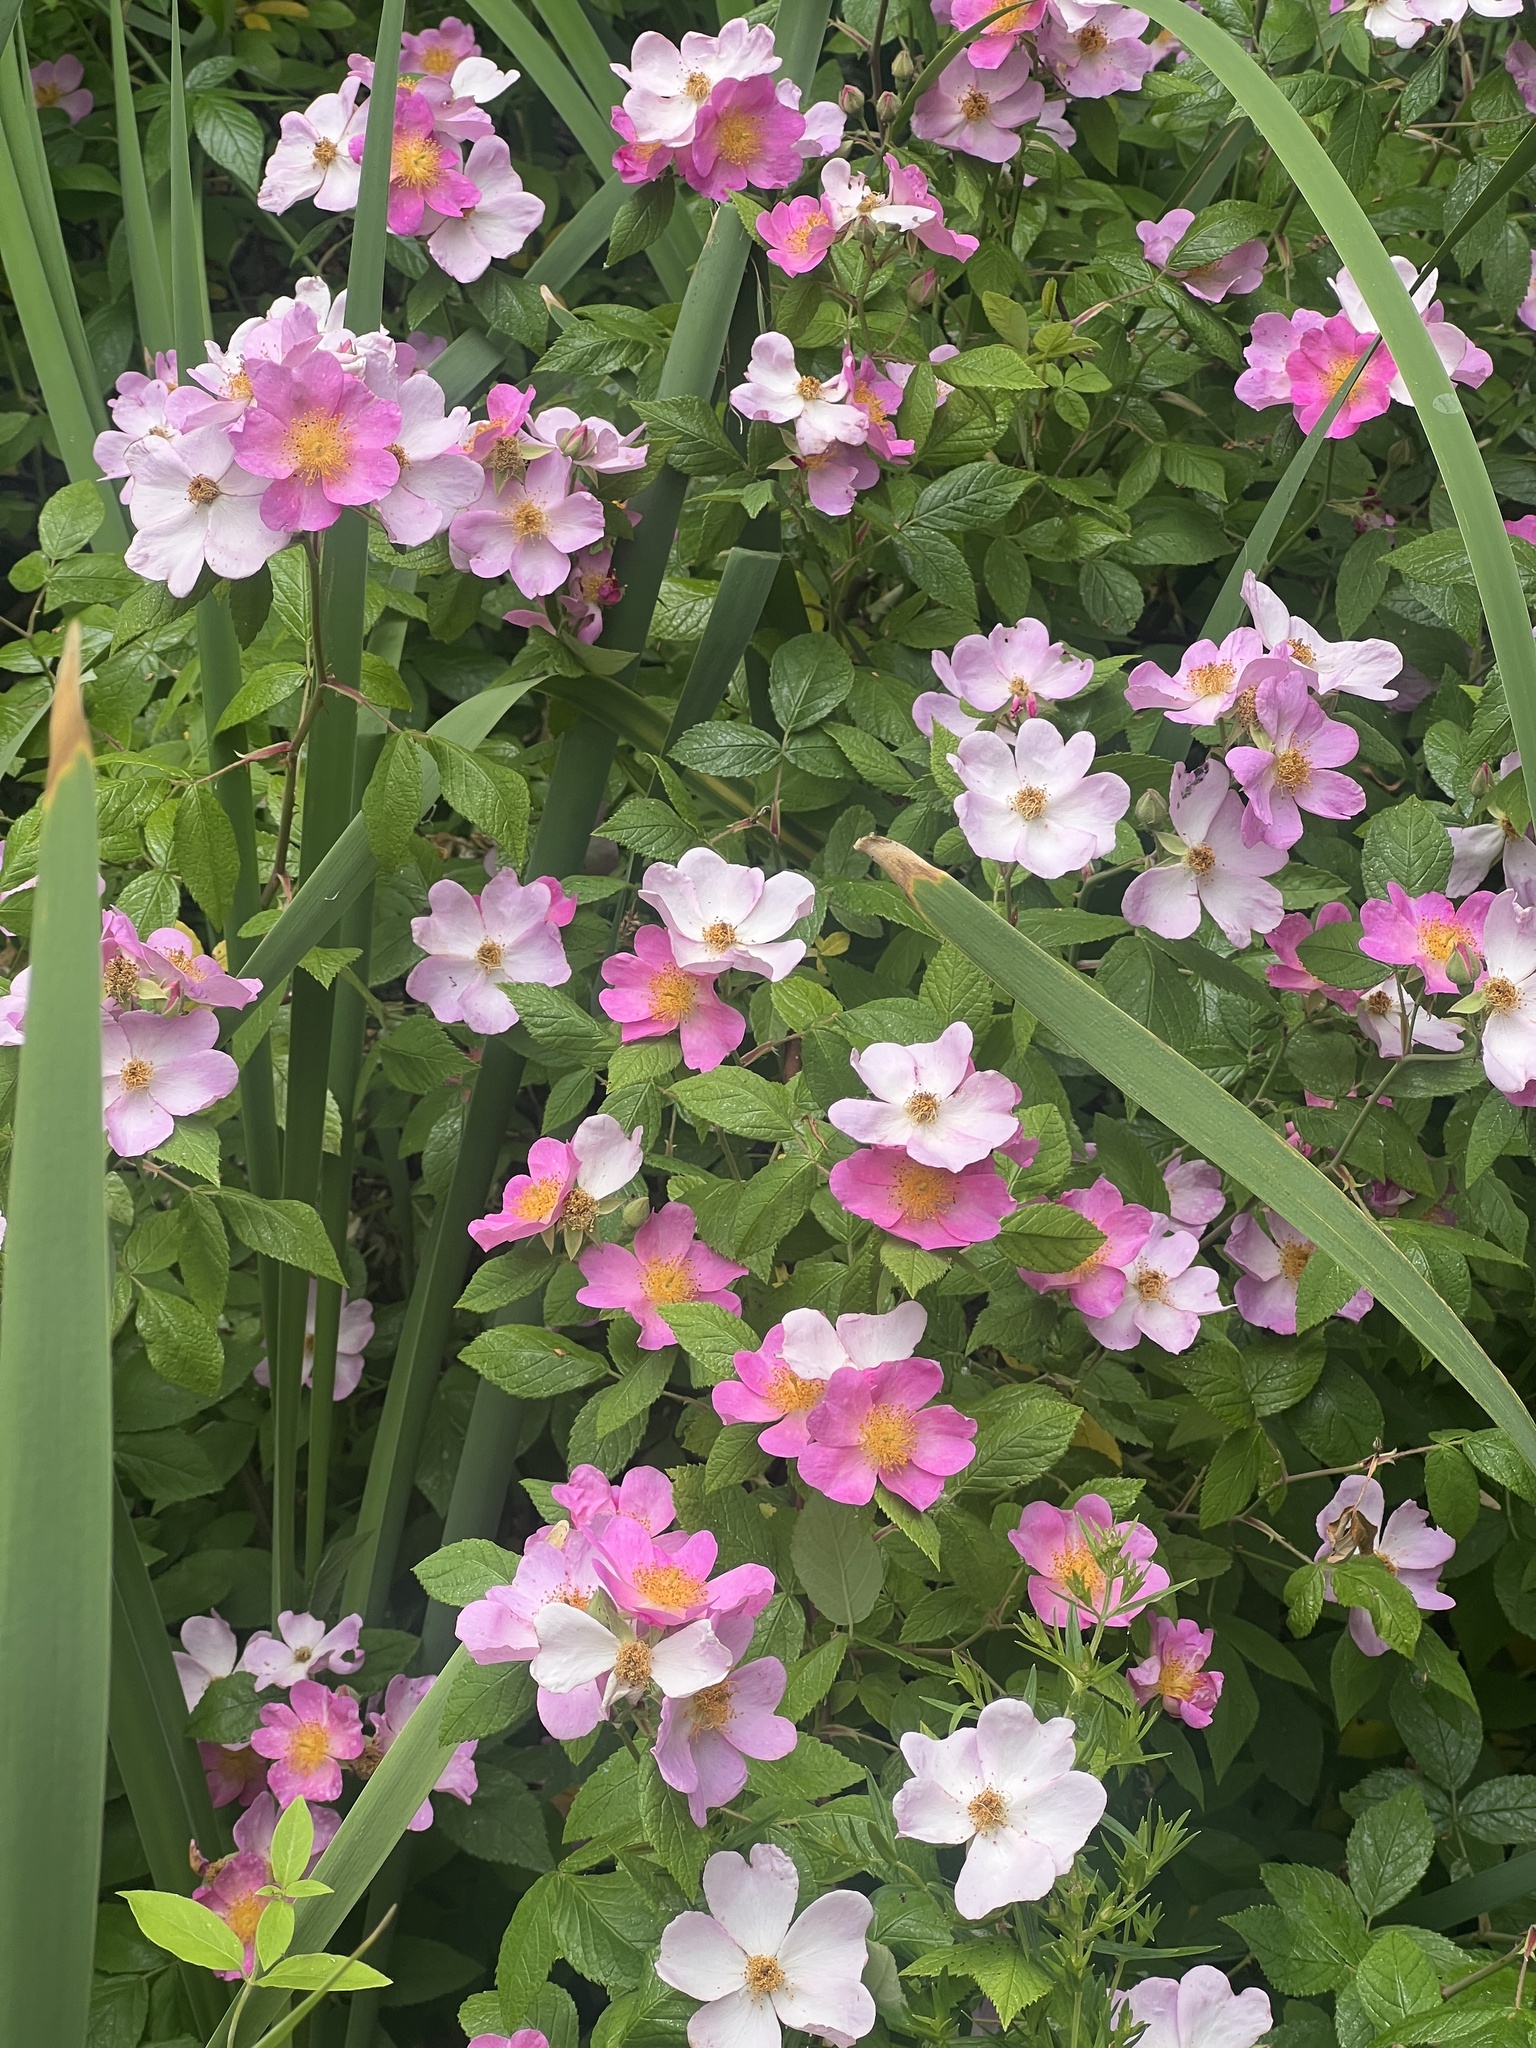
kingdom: Plantae
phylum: Tracheophyta
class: Magnoliopsida
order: Rosales
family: Rosaceae
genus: Rosa
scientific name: Rosa setigera
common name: Prairie rose
